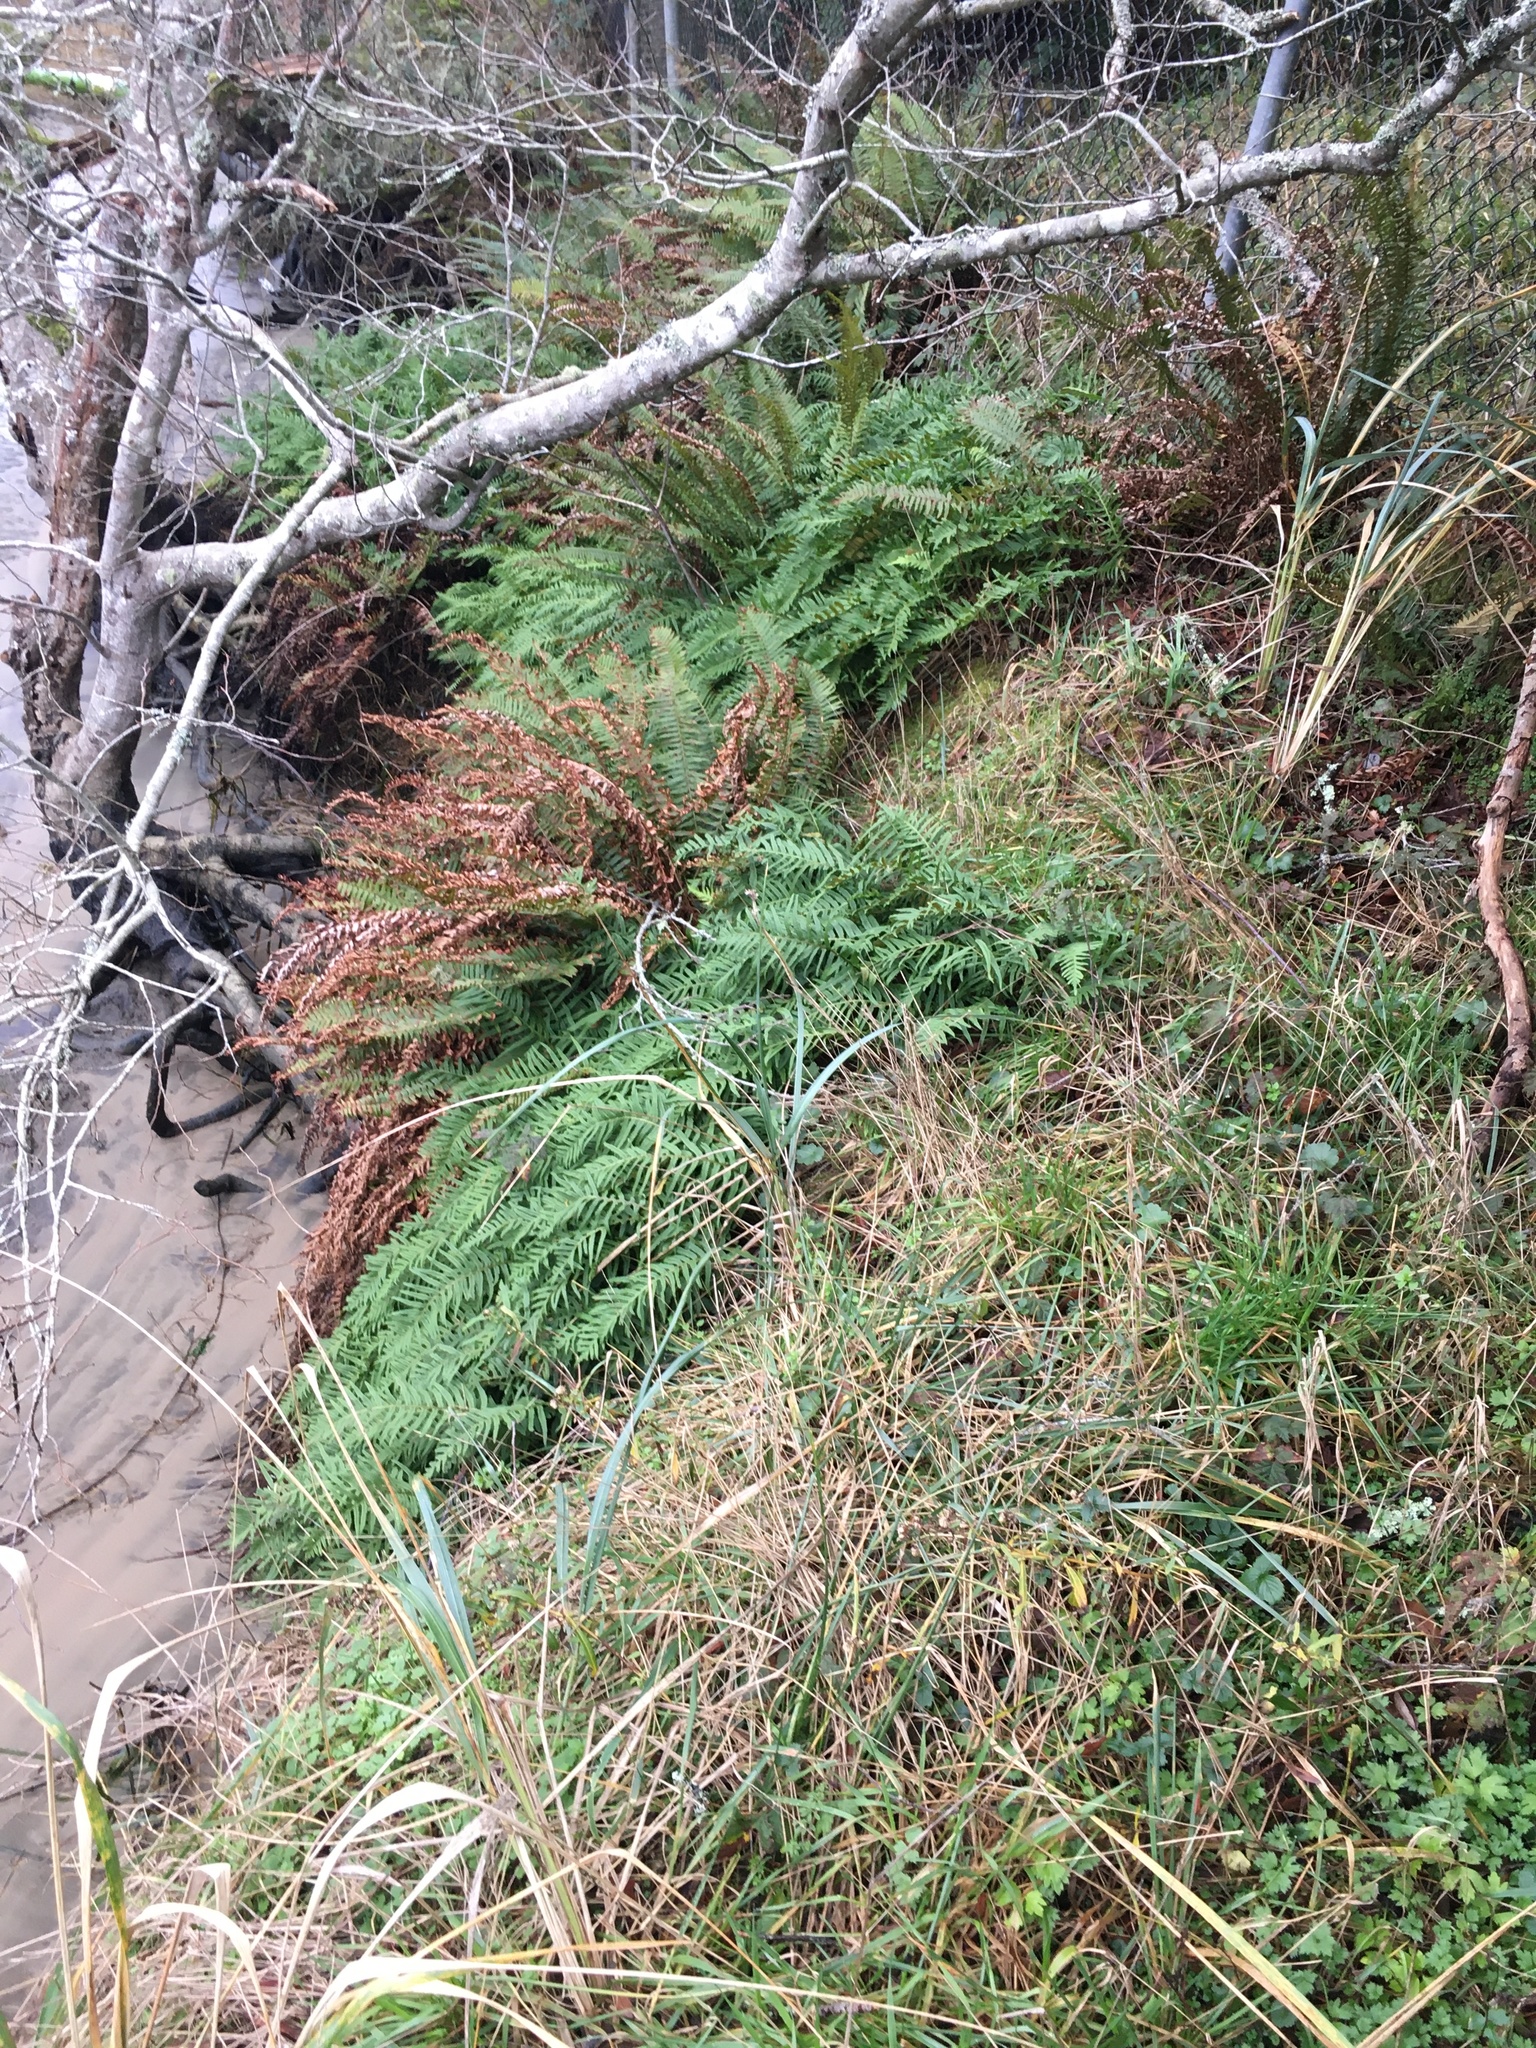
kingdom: Plantae
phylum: Tracheophyta
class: Polypodiopsida
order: Polypodiales
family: Polypodiaceae
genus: Polypodium
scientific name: Polypodium glycyrrhiza
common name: Licorice fern
